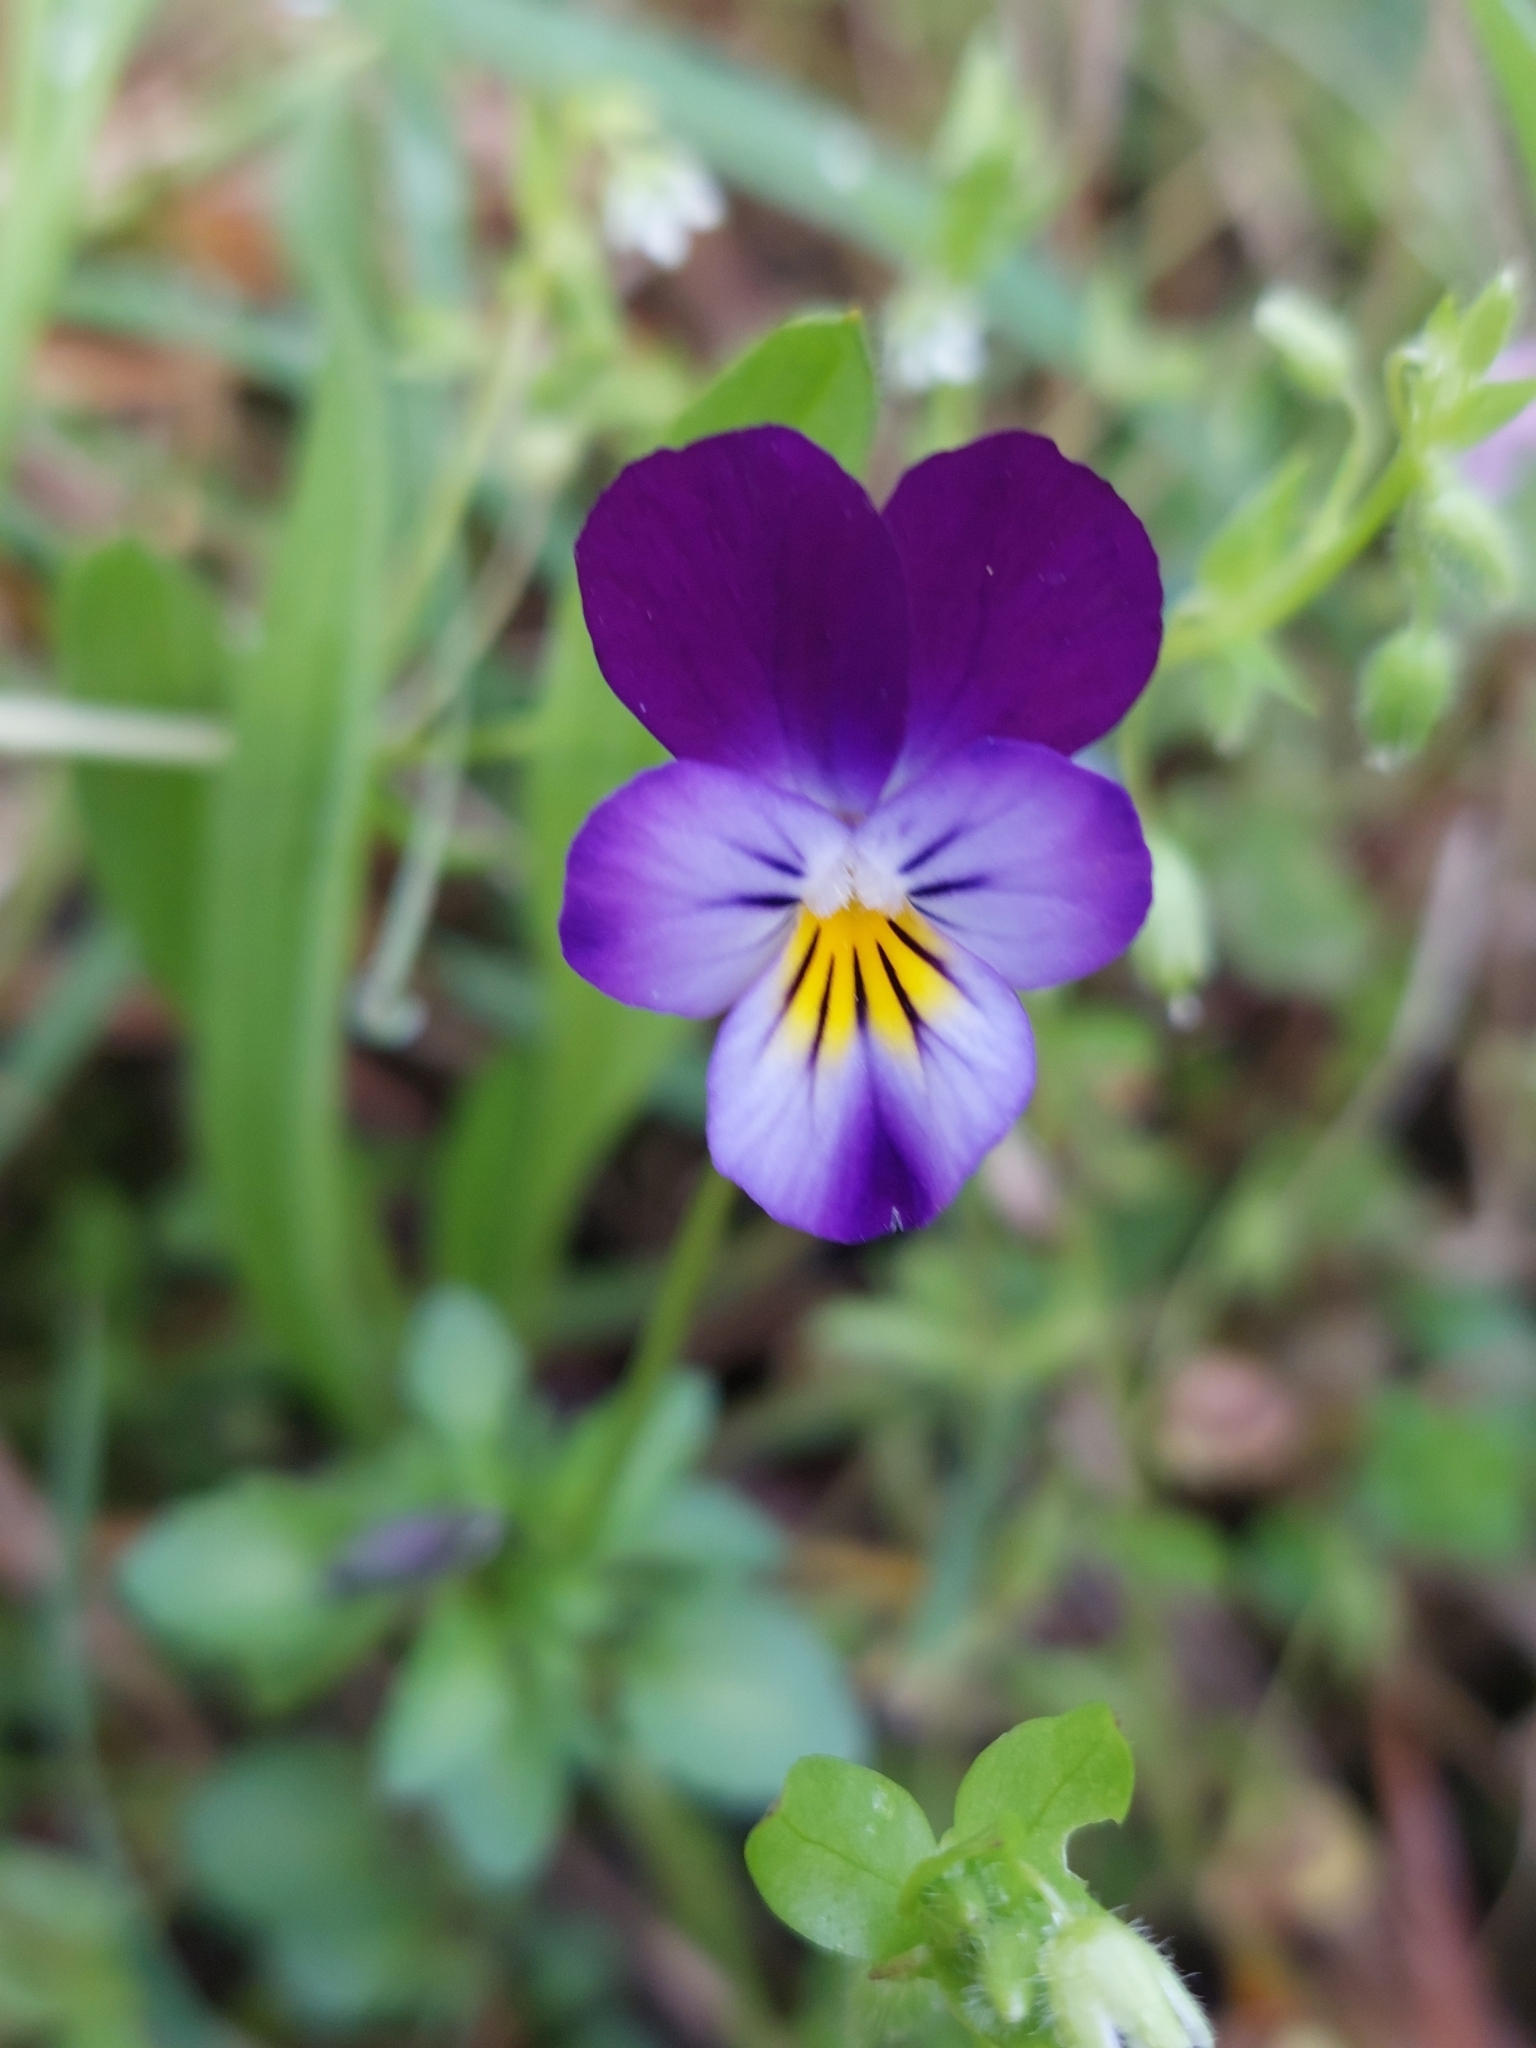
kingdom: Plantae
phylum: Tracheophyta
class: Magnoliopsida
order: Malpighiales
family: Violaceae
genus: Viola
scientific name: Viola tricolor
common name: Pansy
